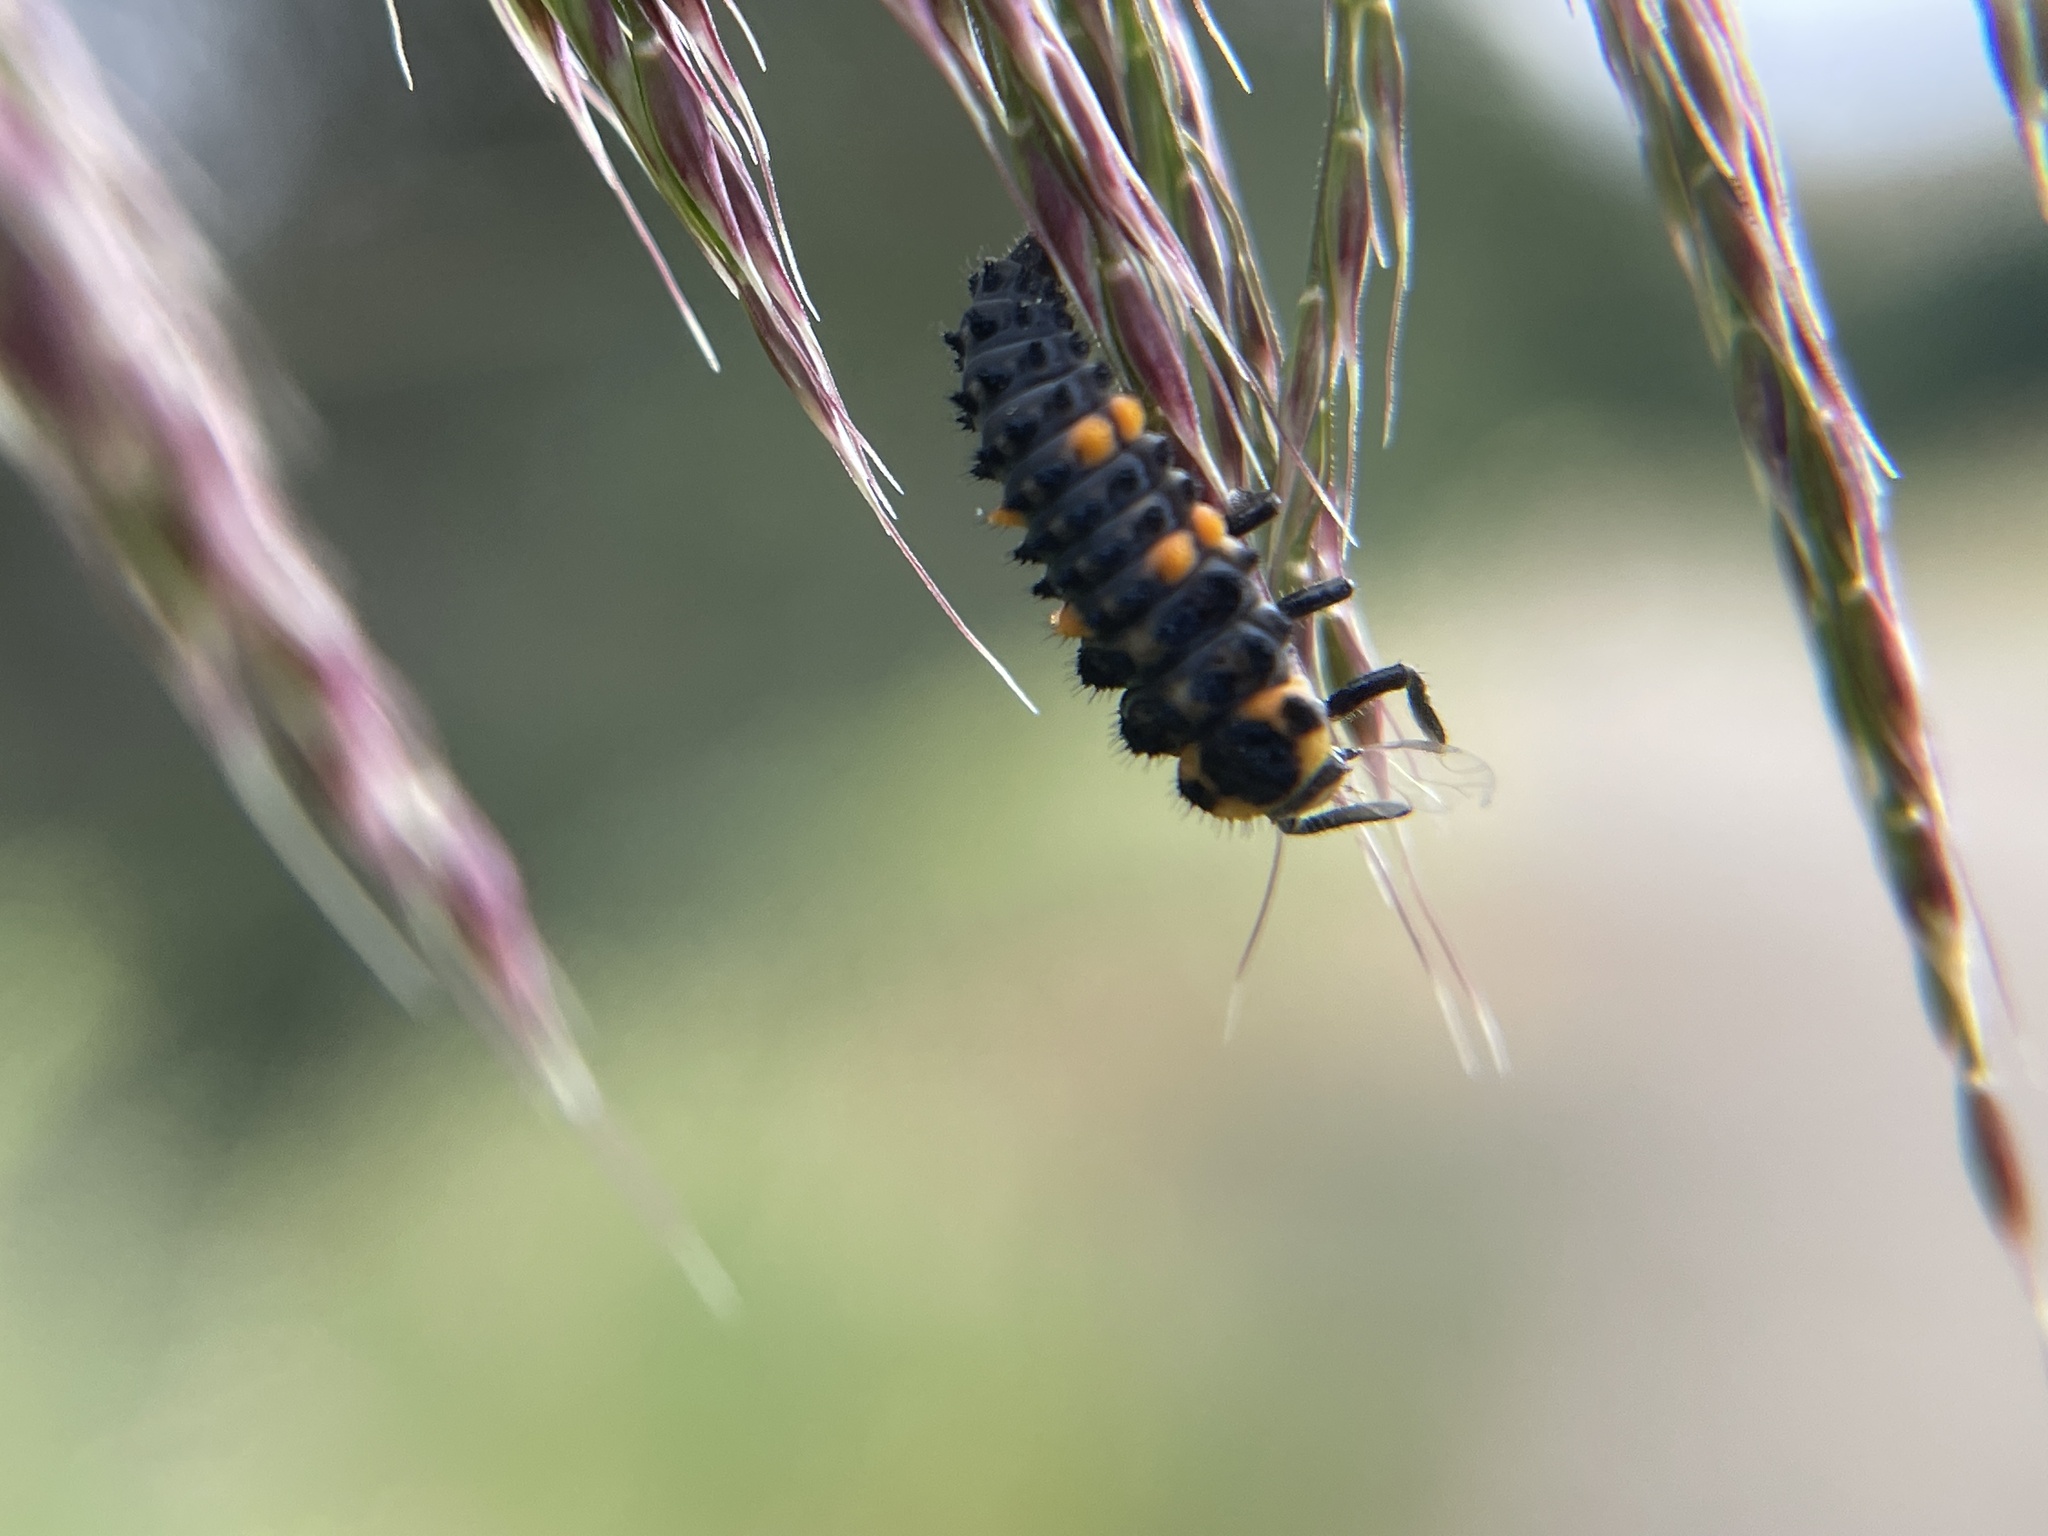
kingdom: Animalia
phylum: Arthropoda
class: Insecta
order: Coleoptera
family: Coccinellidae
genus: Coccinella
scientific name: Coccinella septempunctata
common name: Sevenspotted lady beetle
